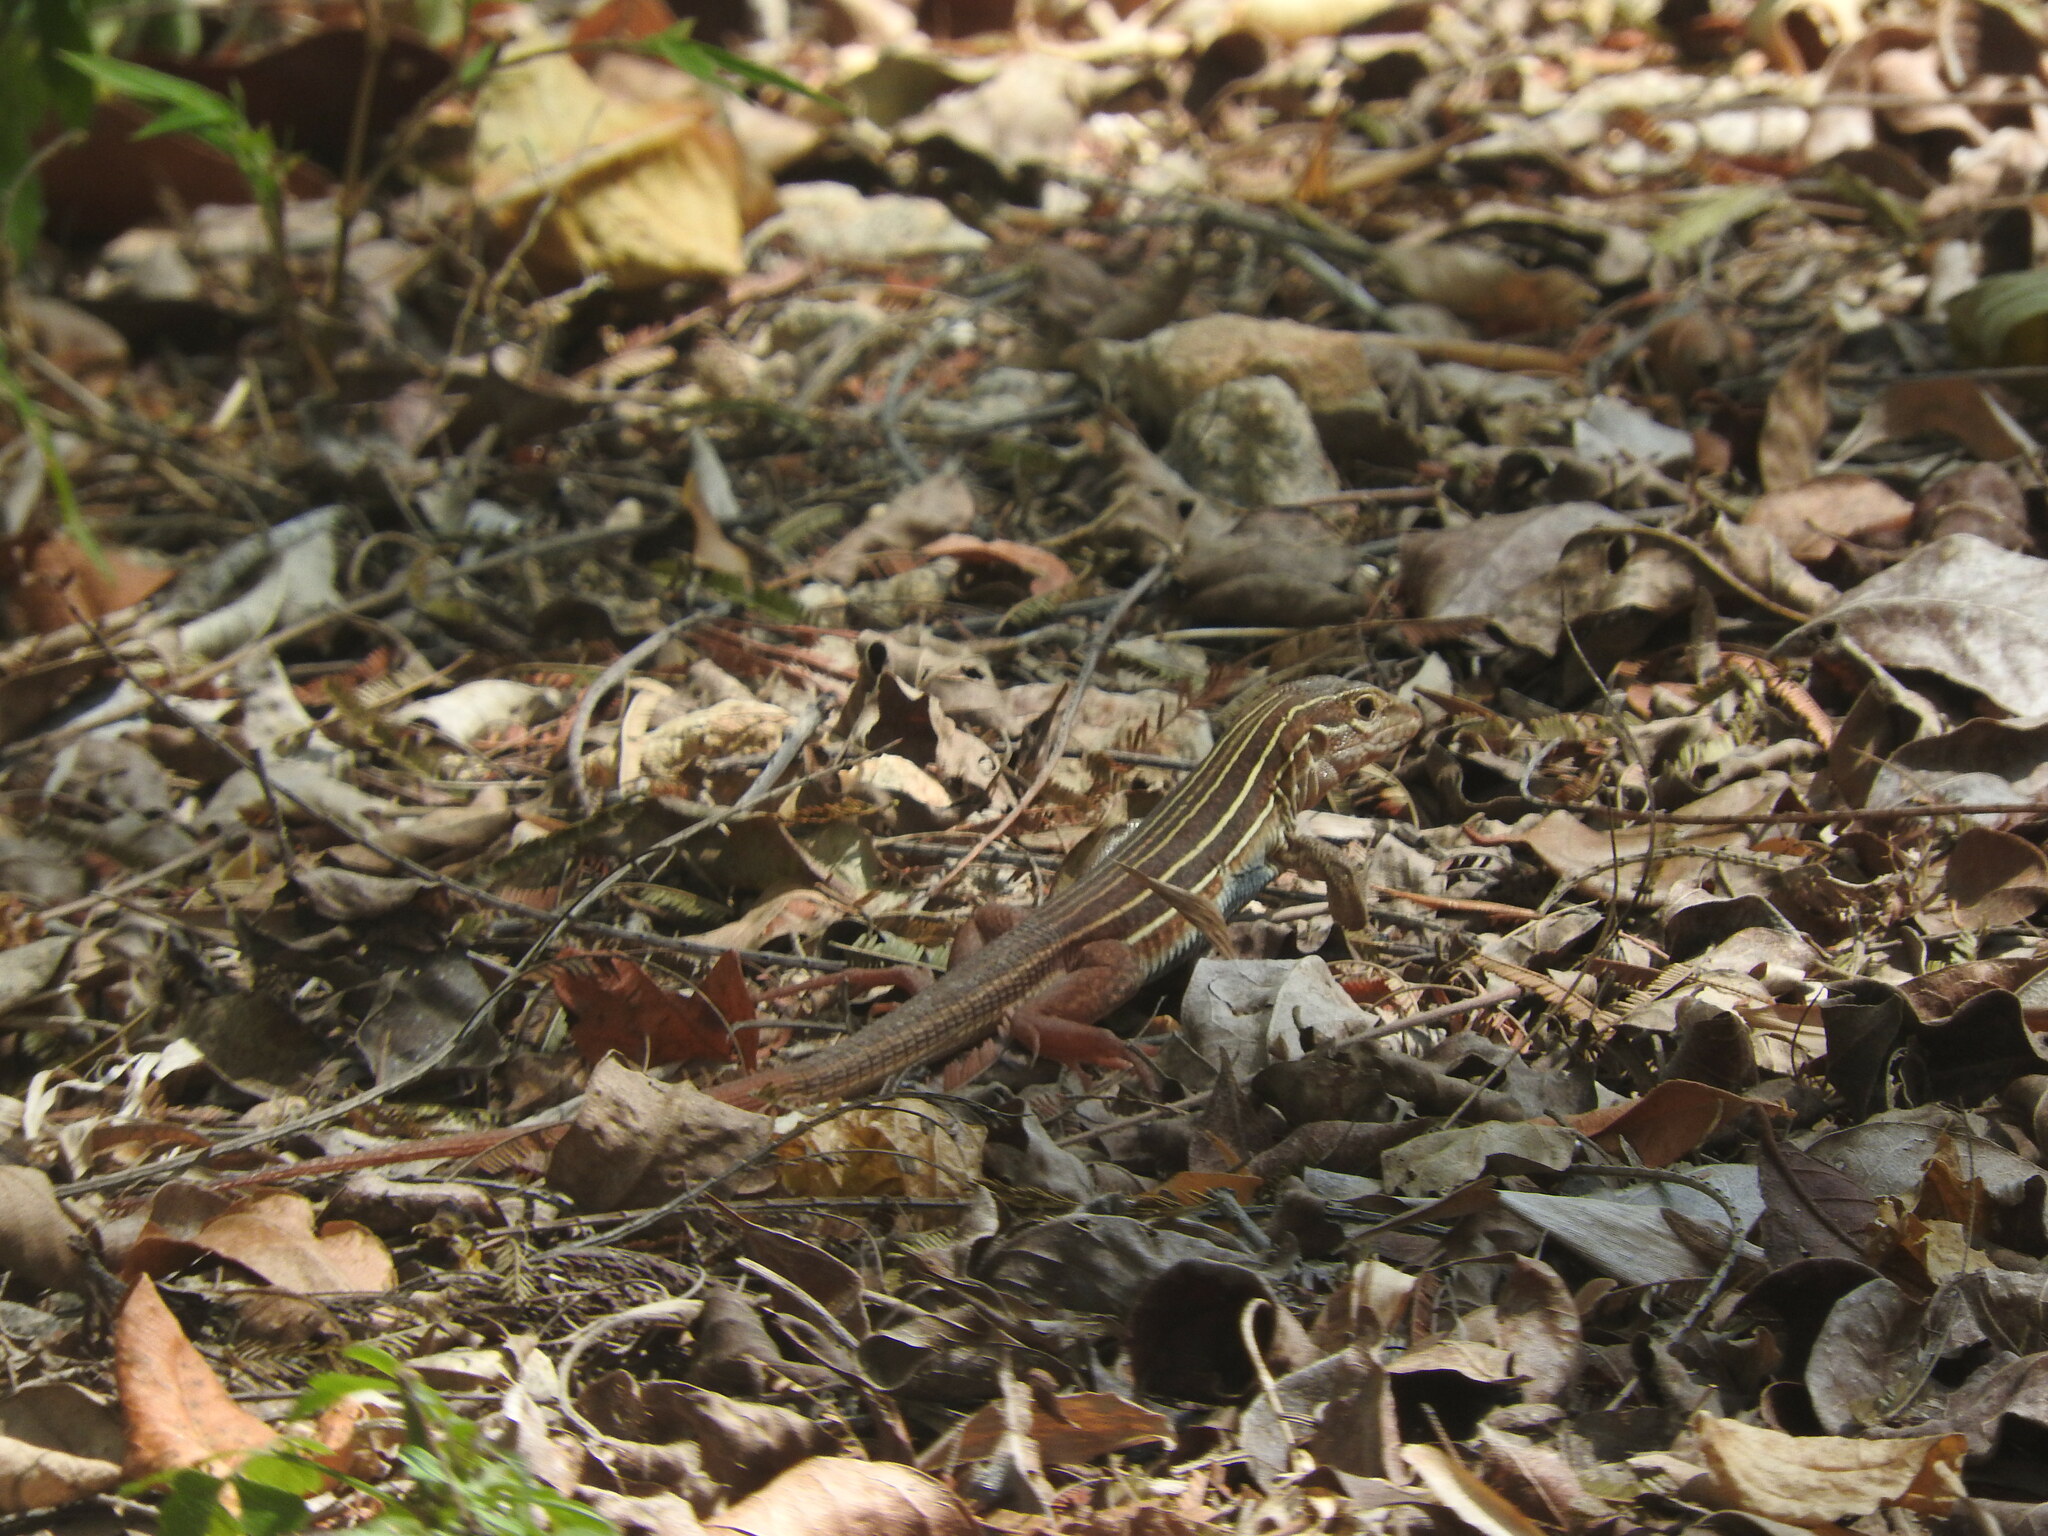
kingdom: Animalia
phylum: Chordata
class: Squamata
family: Teiidae
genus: Aspidoscelis
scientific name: Aspidoscelis angusticeps
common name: Yucatan whiptail
